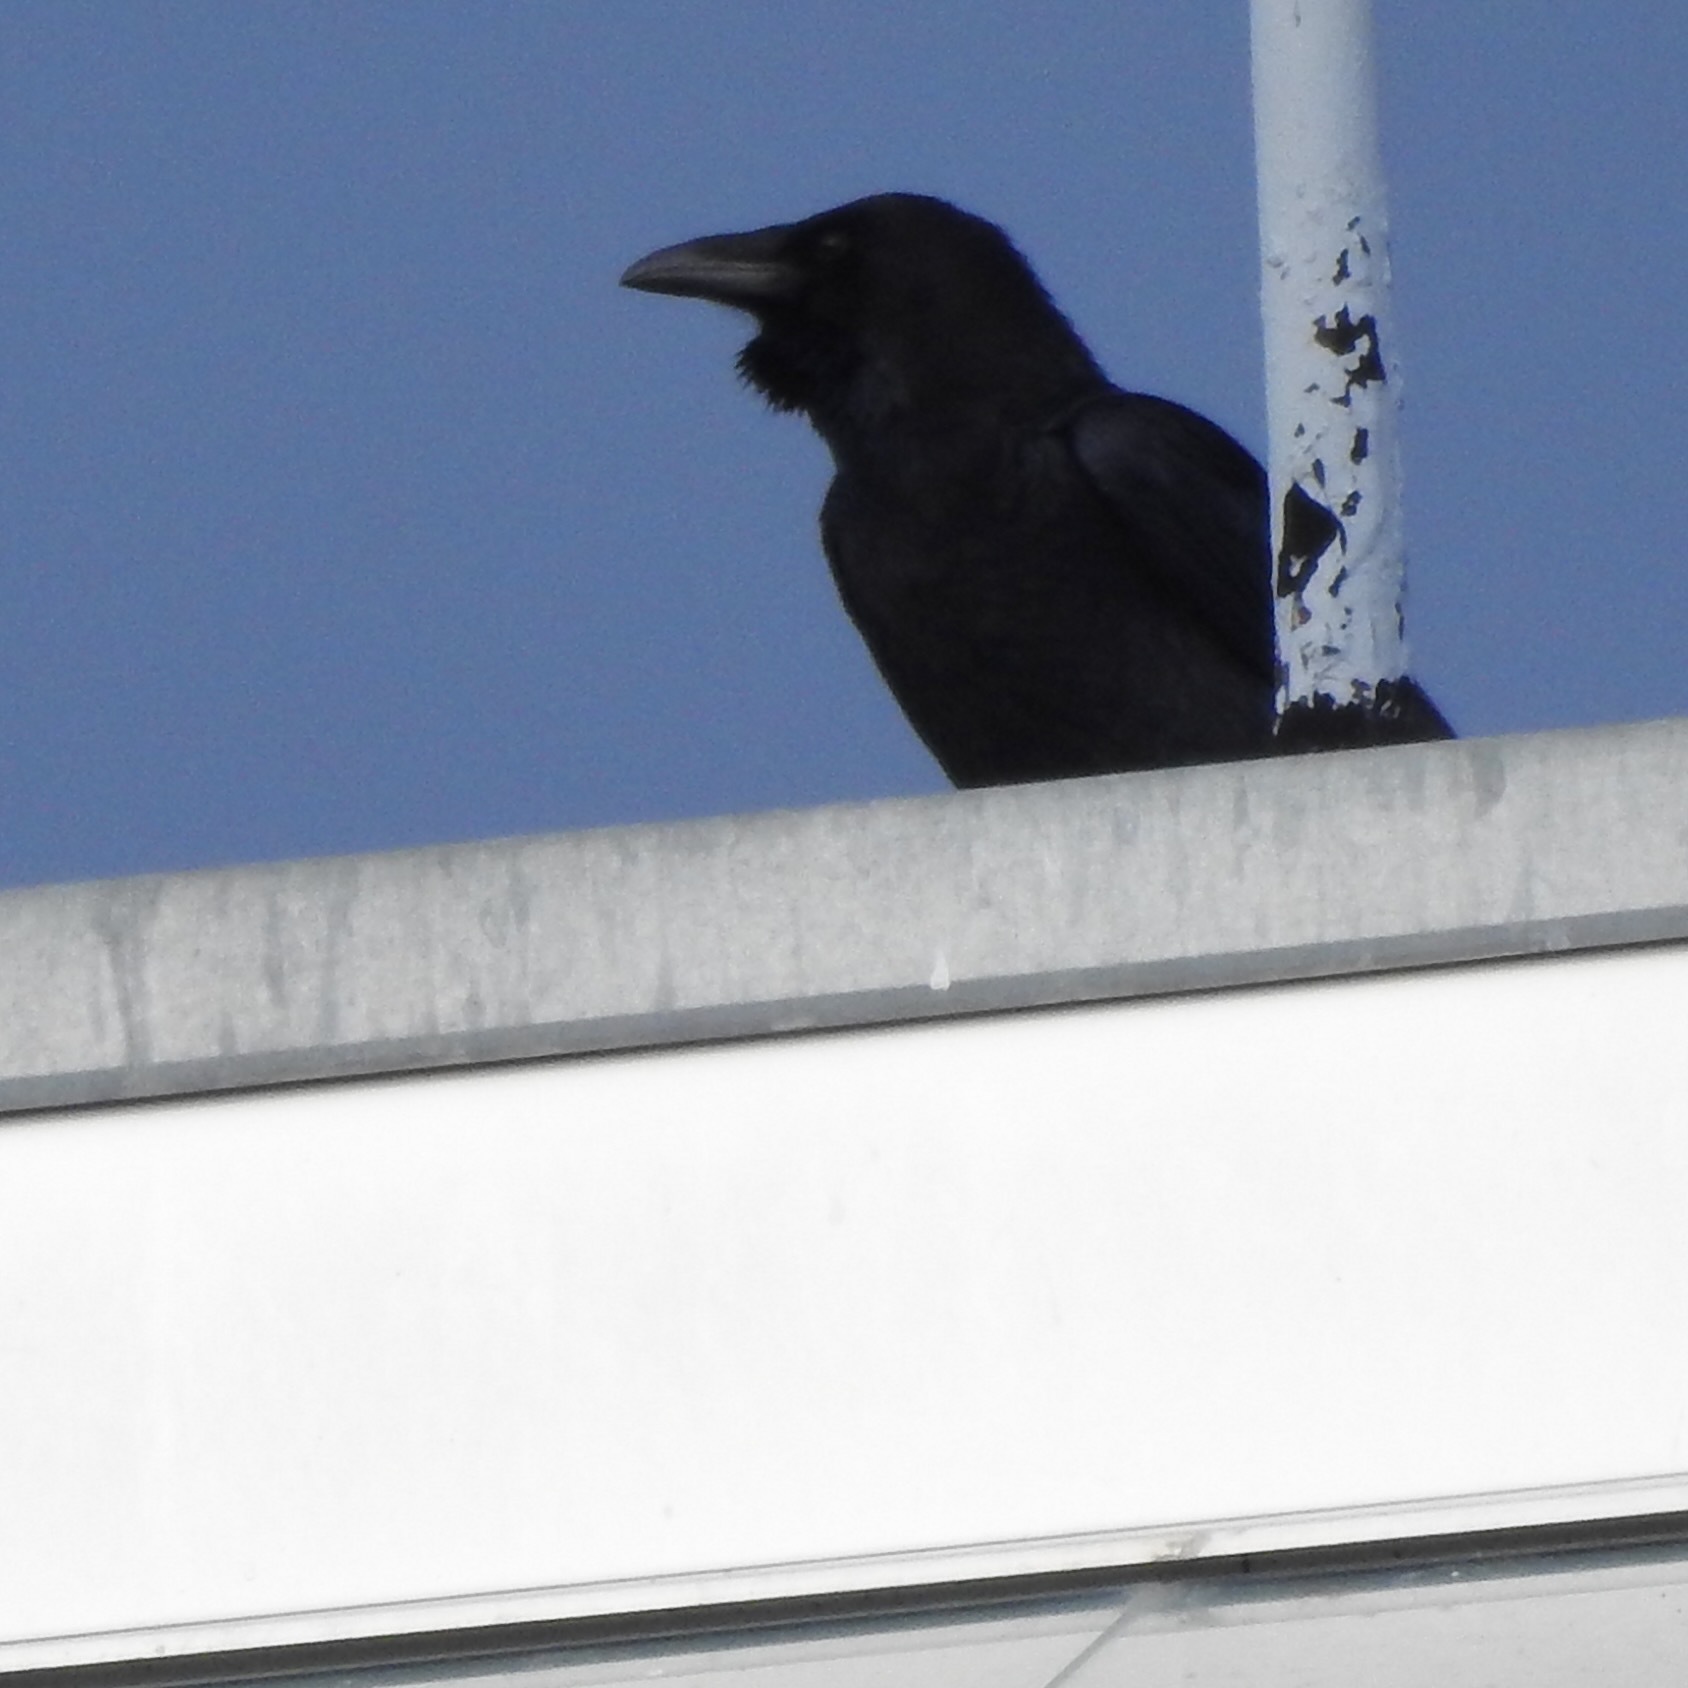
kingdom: Animalia
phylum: Chordata
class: Aves
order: Passeriformes
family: Corvidae
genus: Corvus
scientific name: Corvus corax
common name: Common raven
